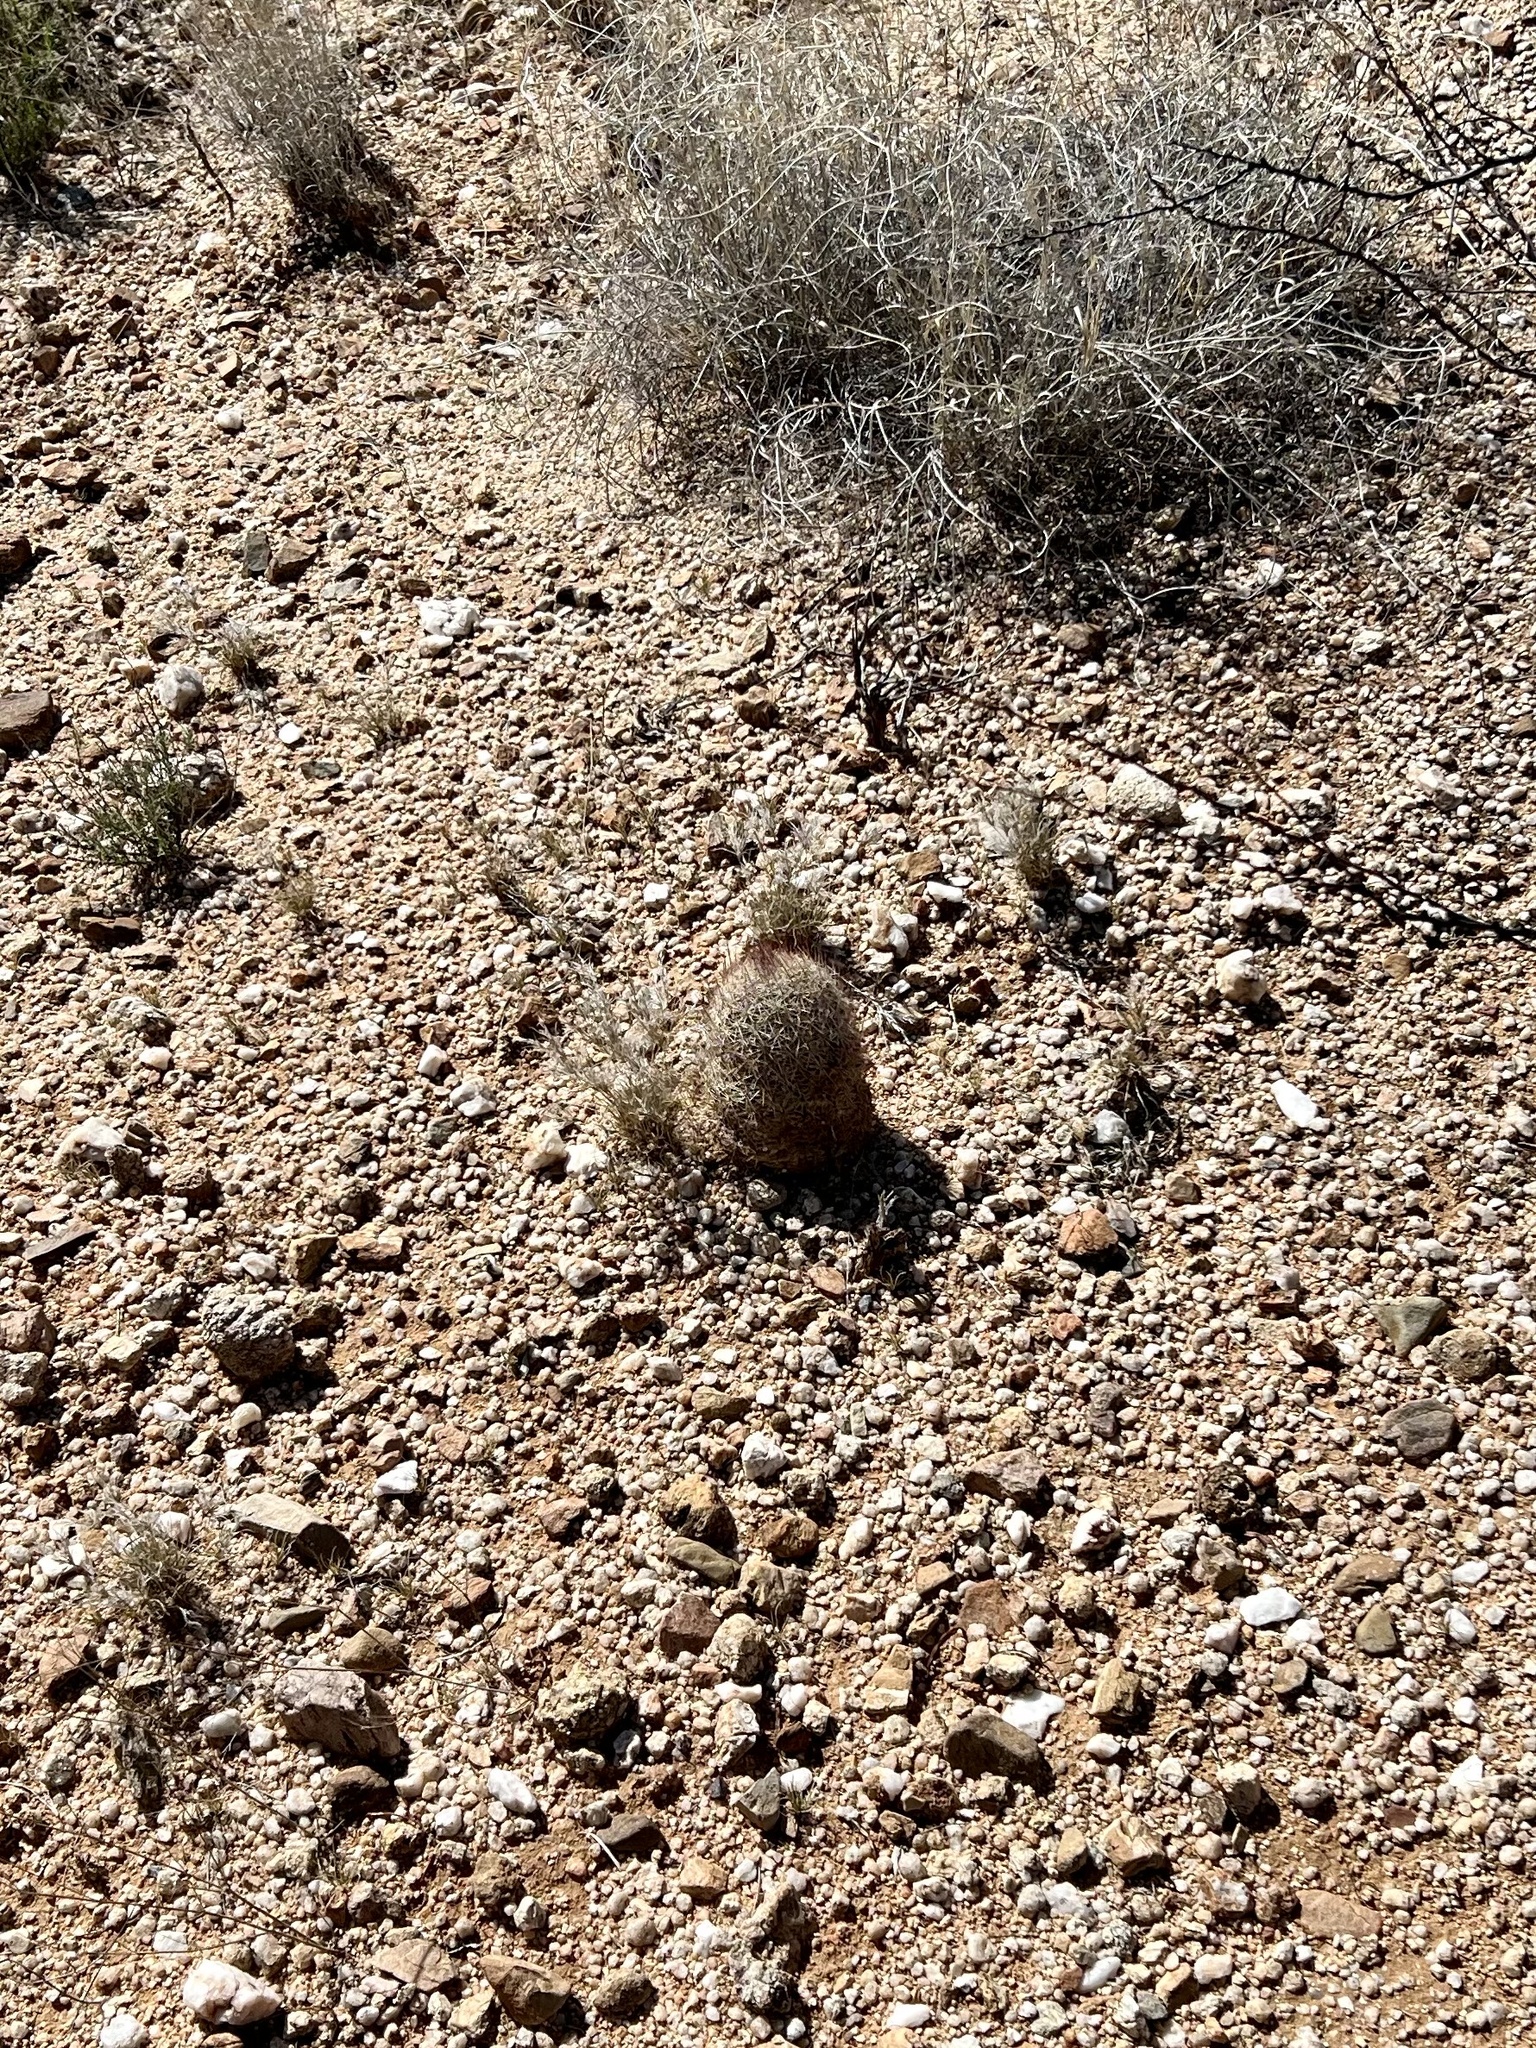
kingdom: Plantae
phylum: Tracheophyta
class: Magnoliopsida
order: Caryophyllales
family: Cactaceae
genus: Sclerocactus
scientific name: Sclerocactus johnsonii
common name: Eight-spine fishhook cactus
